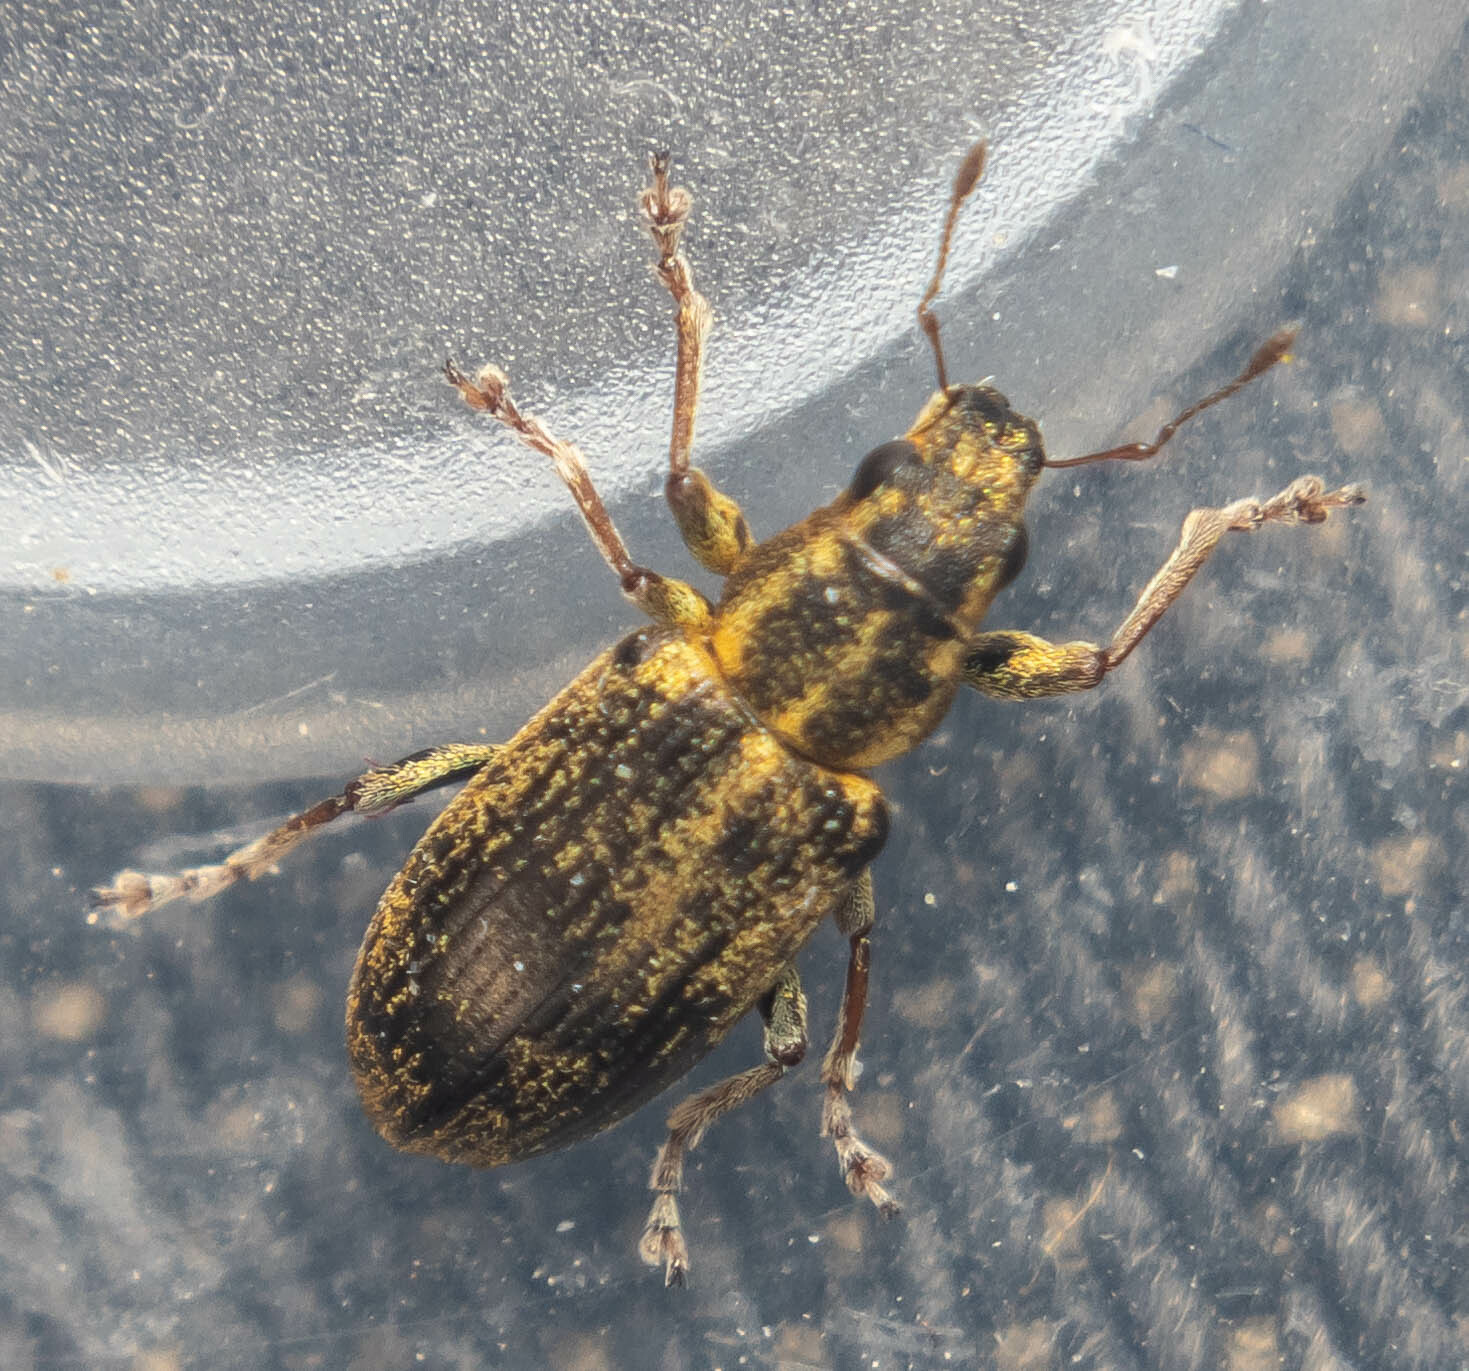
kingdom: Animalia
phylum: Arthropoda
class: Insecta
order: Coleoptera
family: Curculionidae
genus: Sitona
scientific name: Sitona lineatus
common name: Weevil
